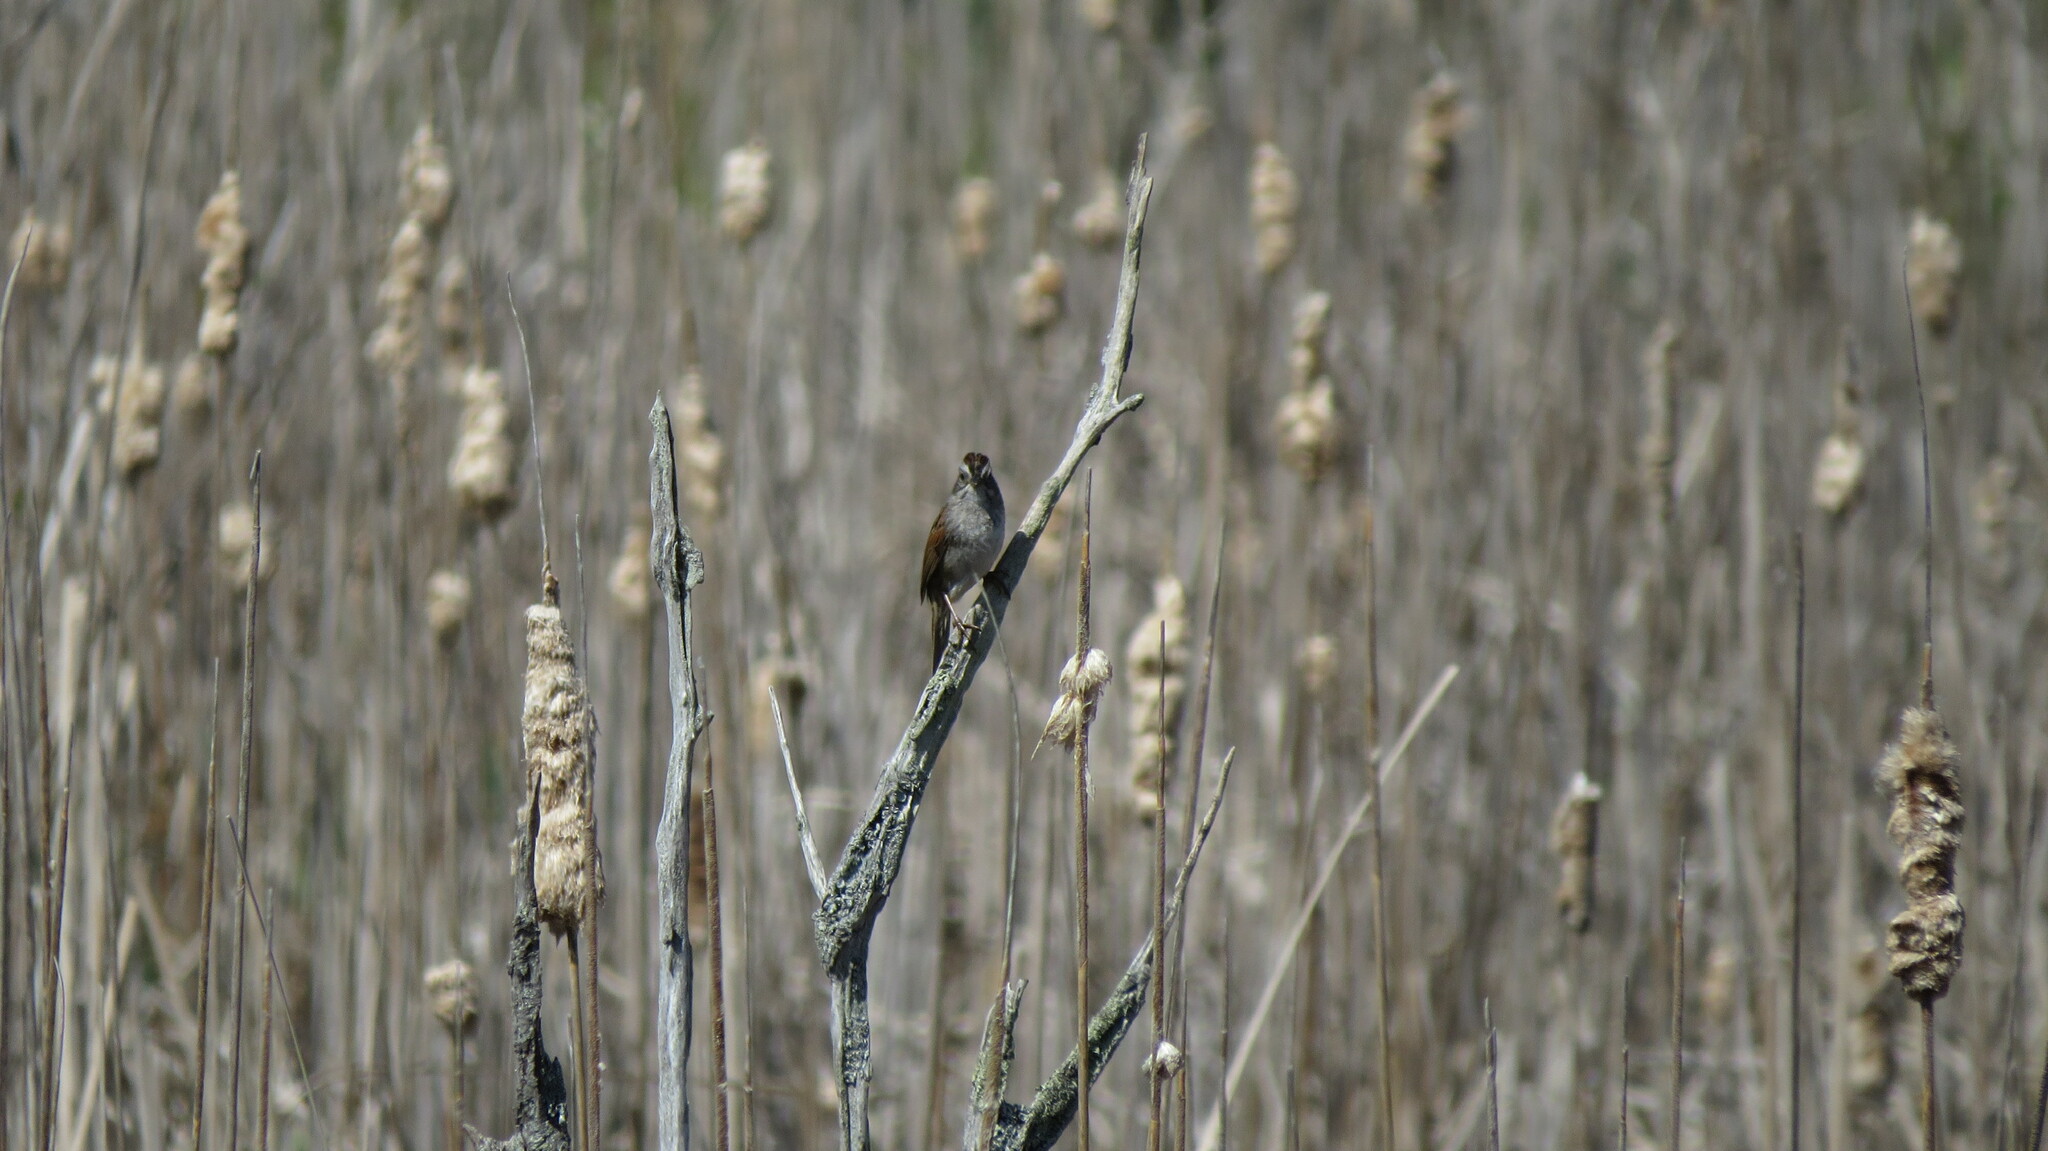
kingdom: Animalia
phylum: Chordata
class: Aves
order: Passeriformes
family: Passerellidae
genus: Melospiza
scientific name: Melospiza georgiana
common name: Swamp sparrow
